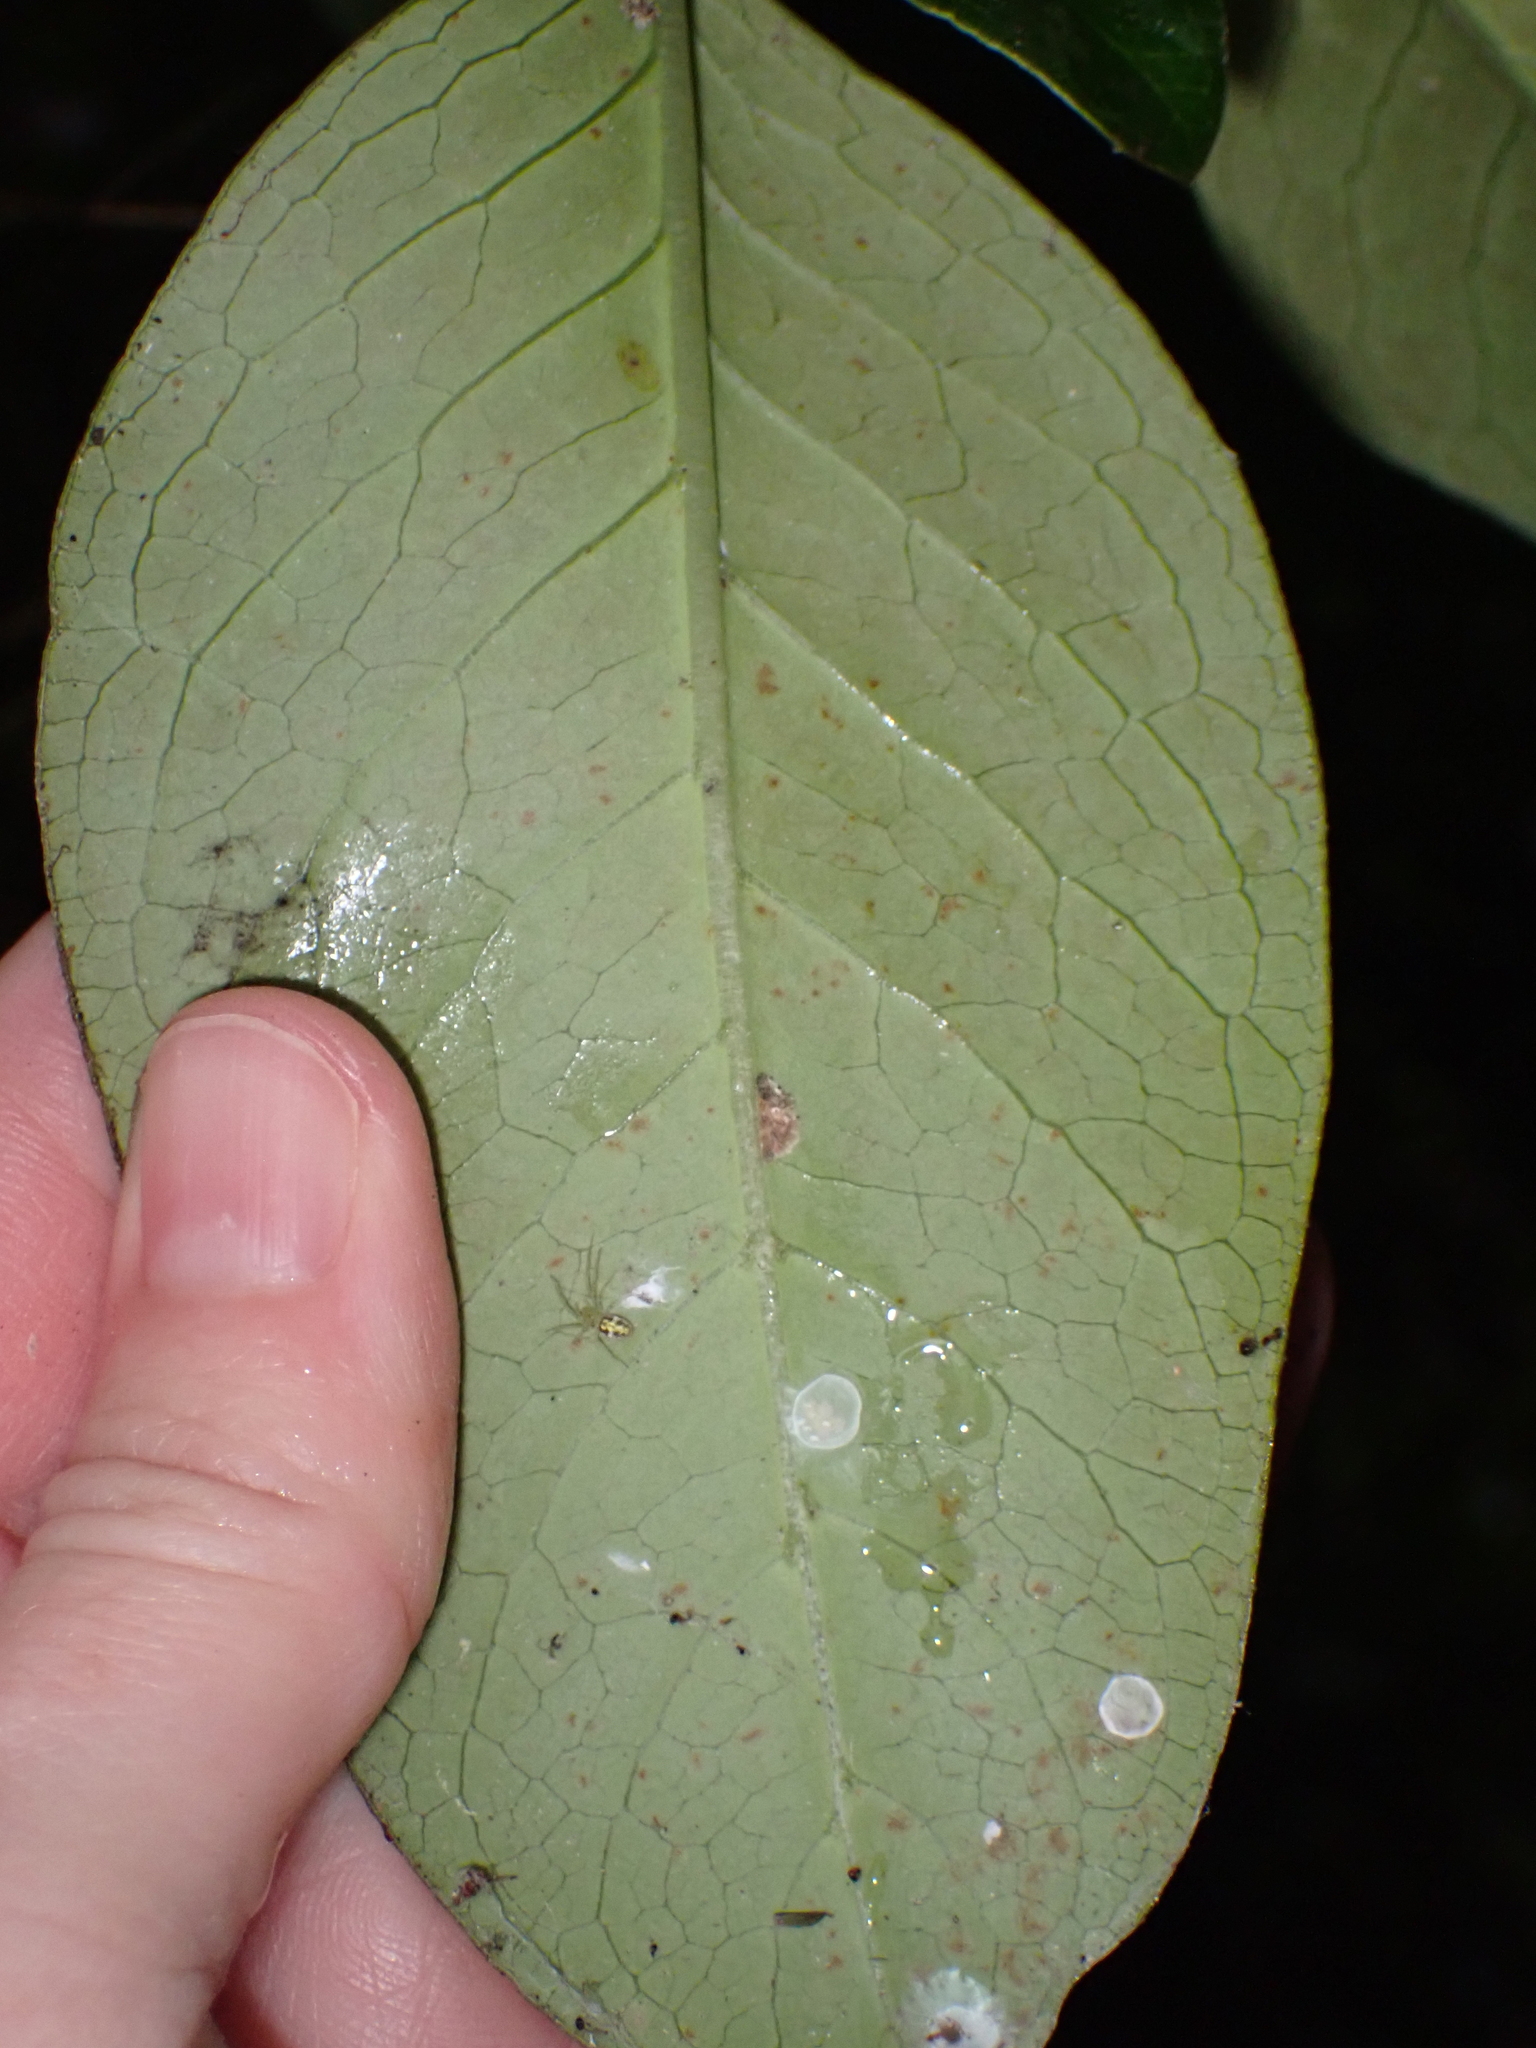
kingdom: Plantae
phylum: Tracheophyta
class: Magnoliopsida
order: Gentianales
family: Rubiaceae
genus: Coprosma
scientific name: Coprosma robusta
